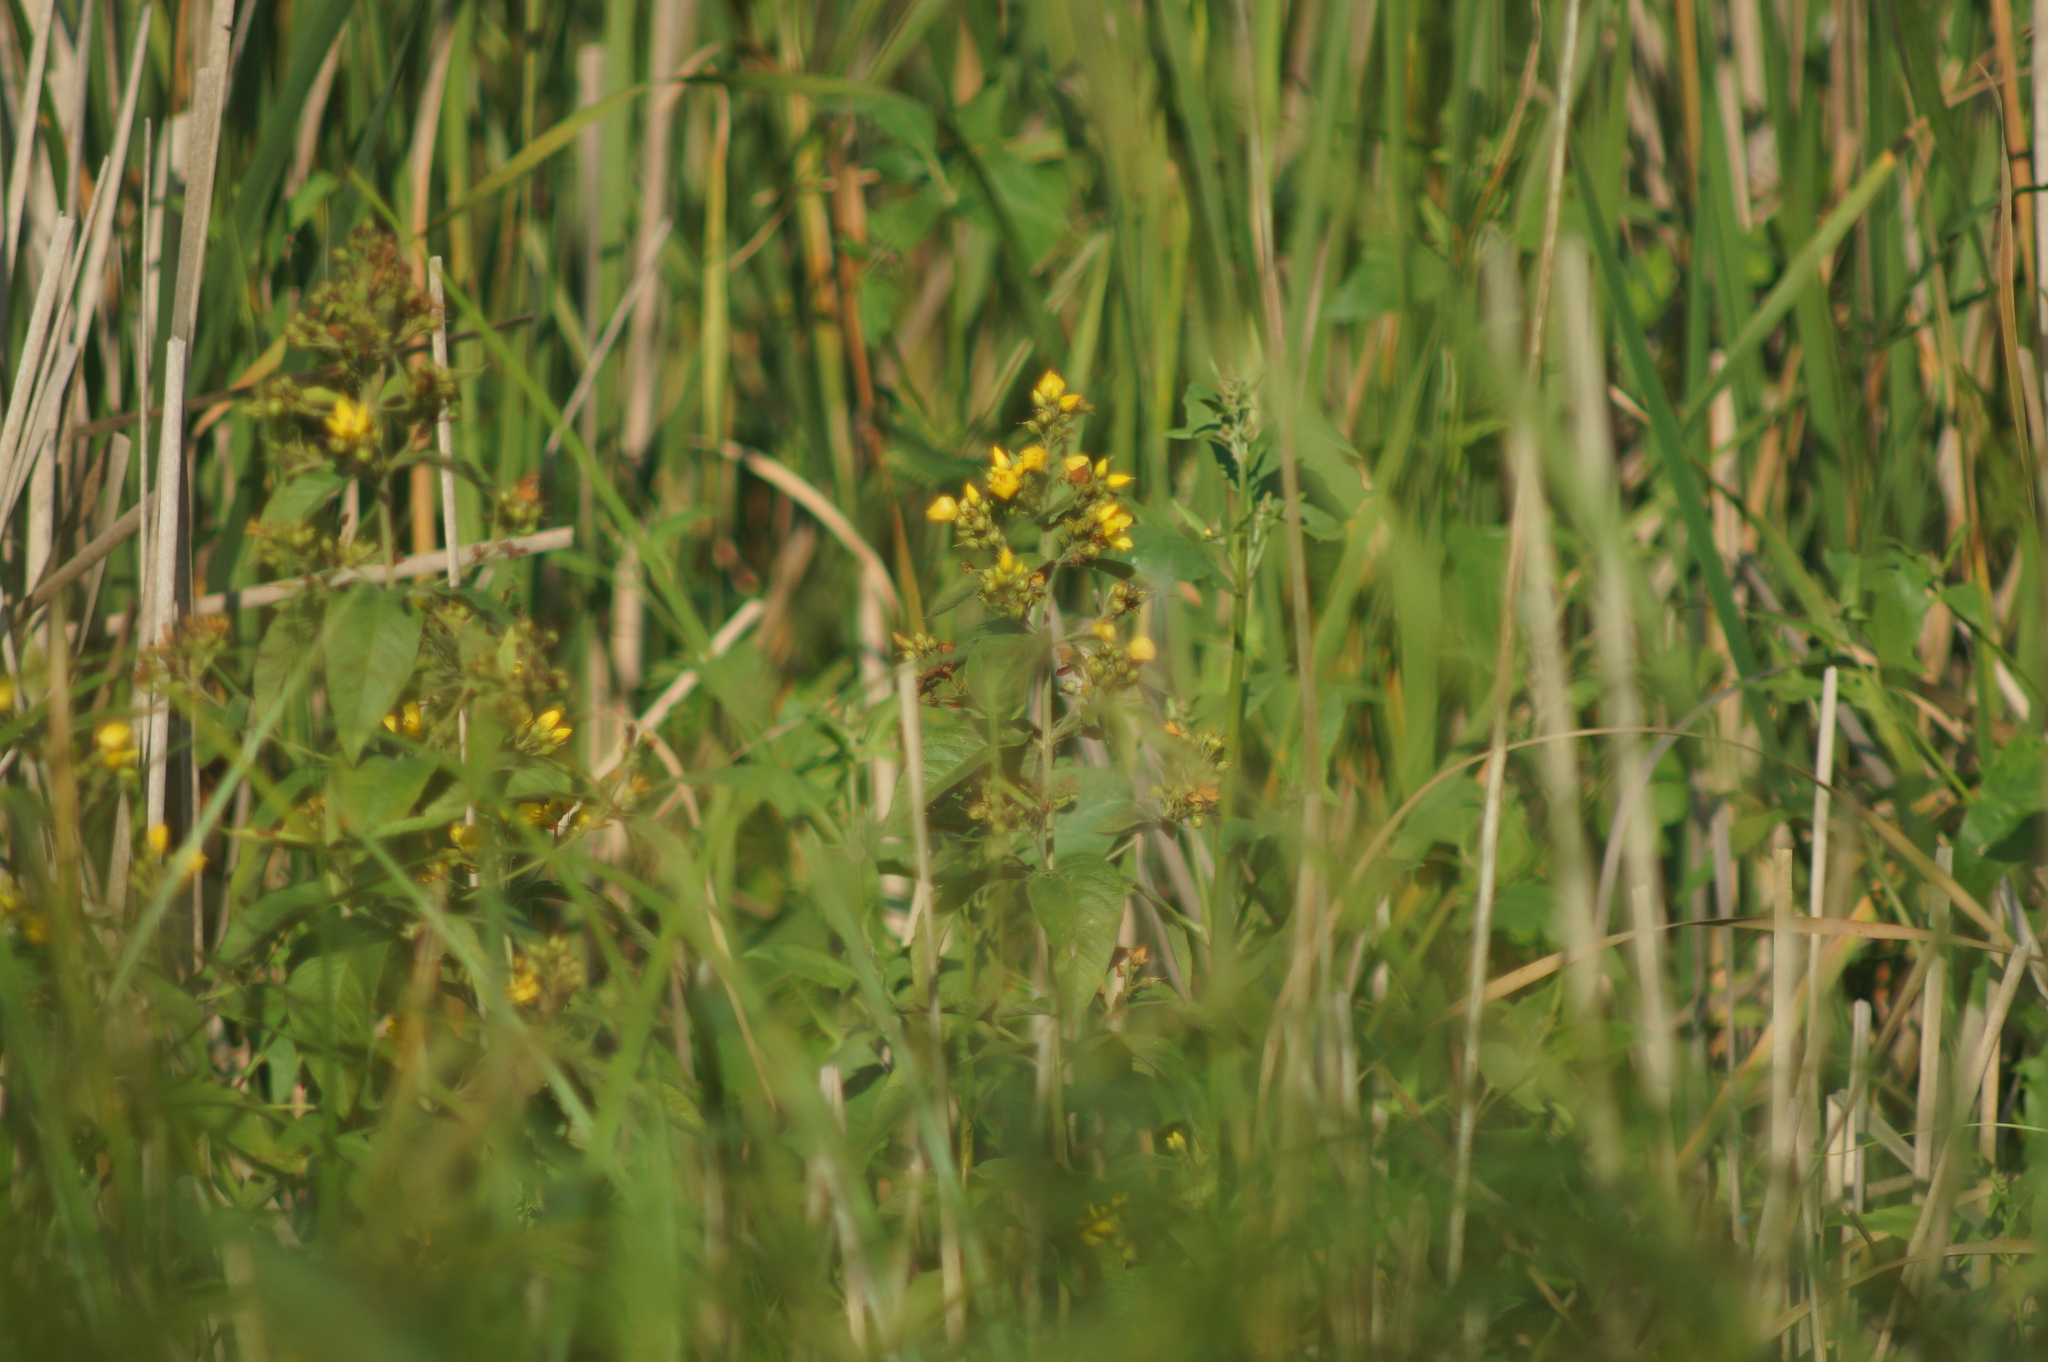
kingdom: Plantae
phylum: Tracheophyta
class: Magnoliopsida
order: Ericales
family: Primulaceae
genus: Lysimachia
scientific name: Lysimachia vulgaris
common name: Yellow loosestrife
